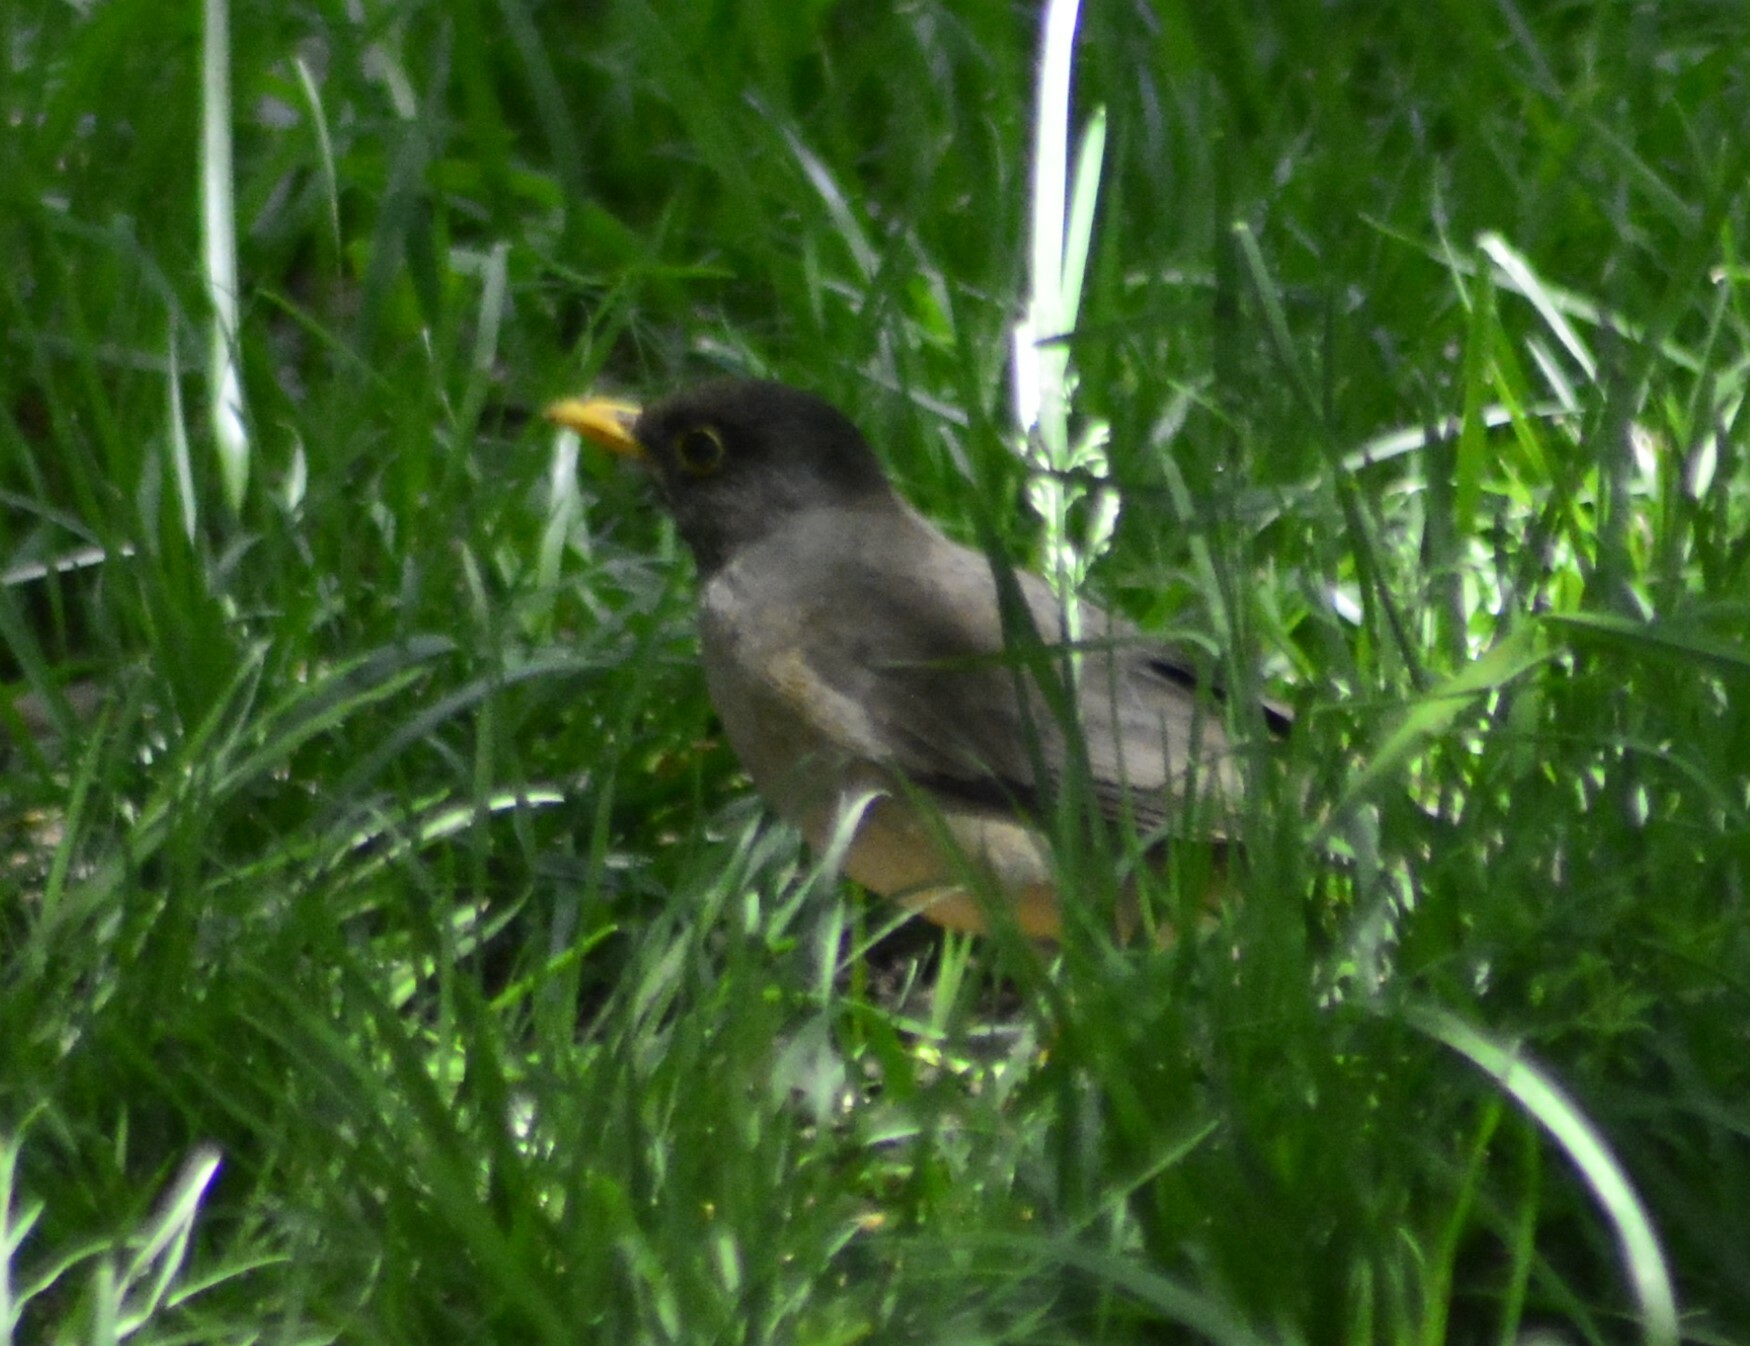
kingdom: Animalia
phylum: Chordata
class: Aves
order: Passeriformes
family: Turdidae
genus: Turdus
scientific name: Turdus falcklandii
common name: Austral thrush
